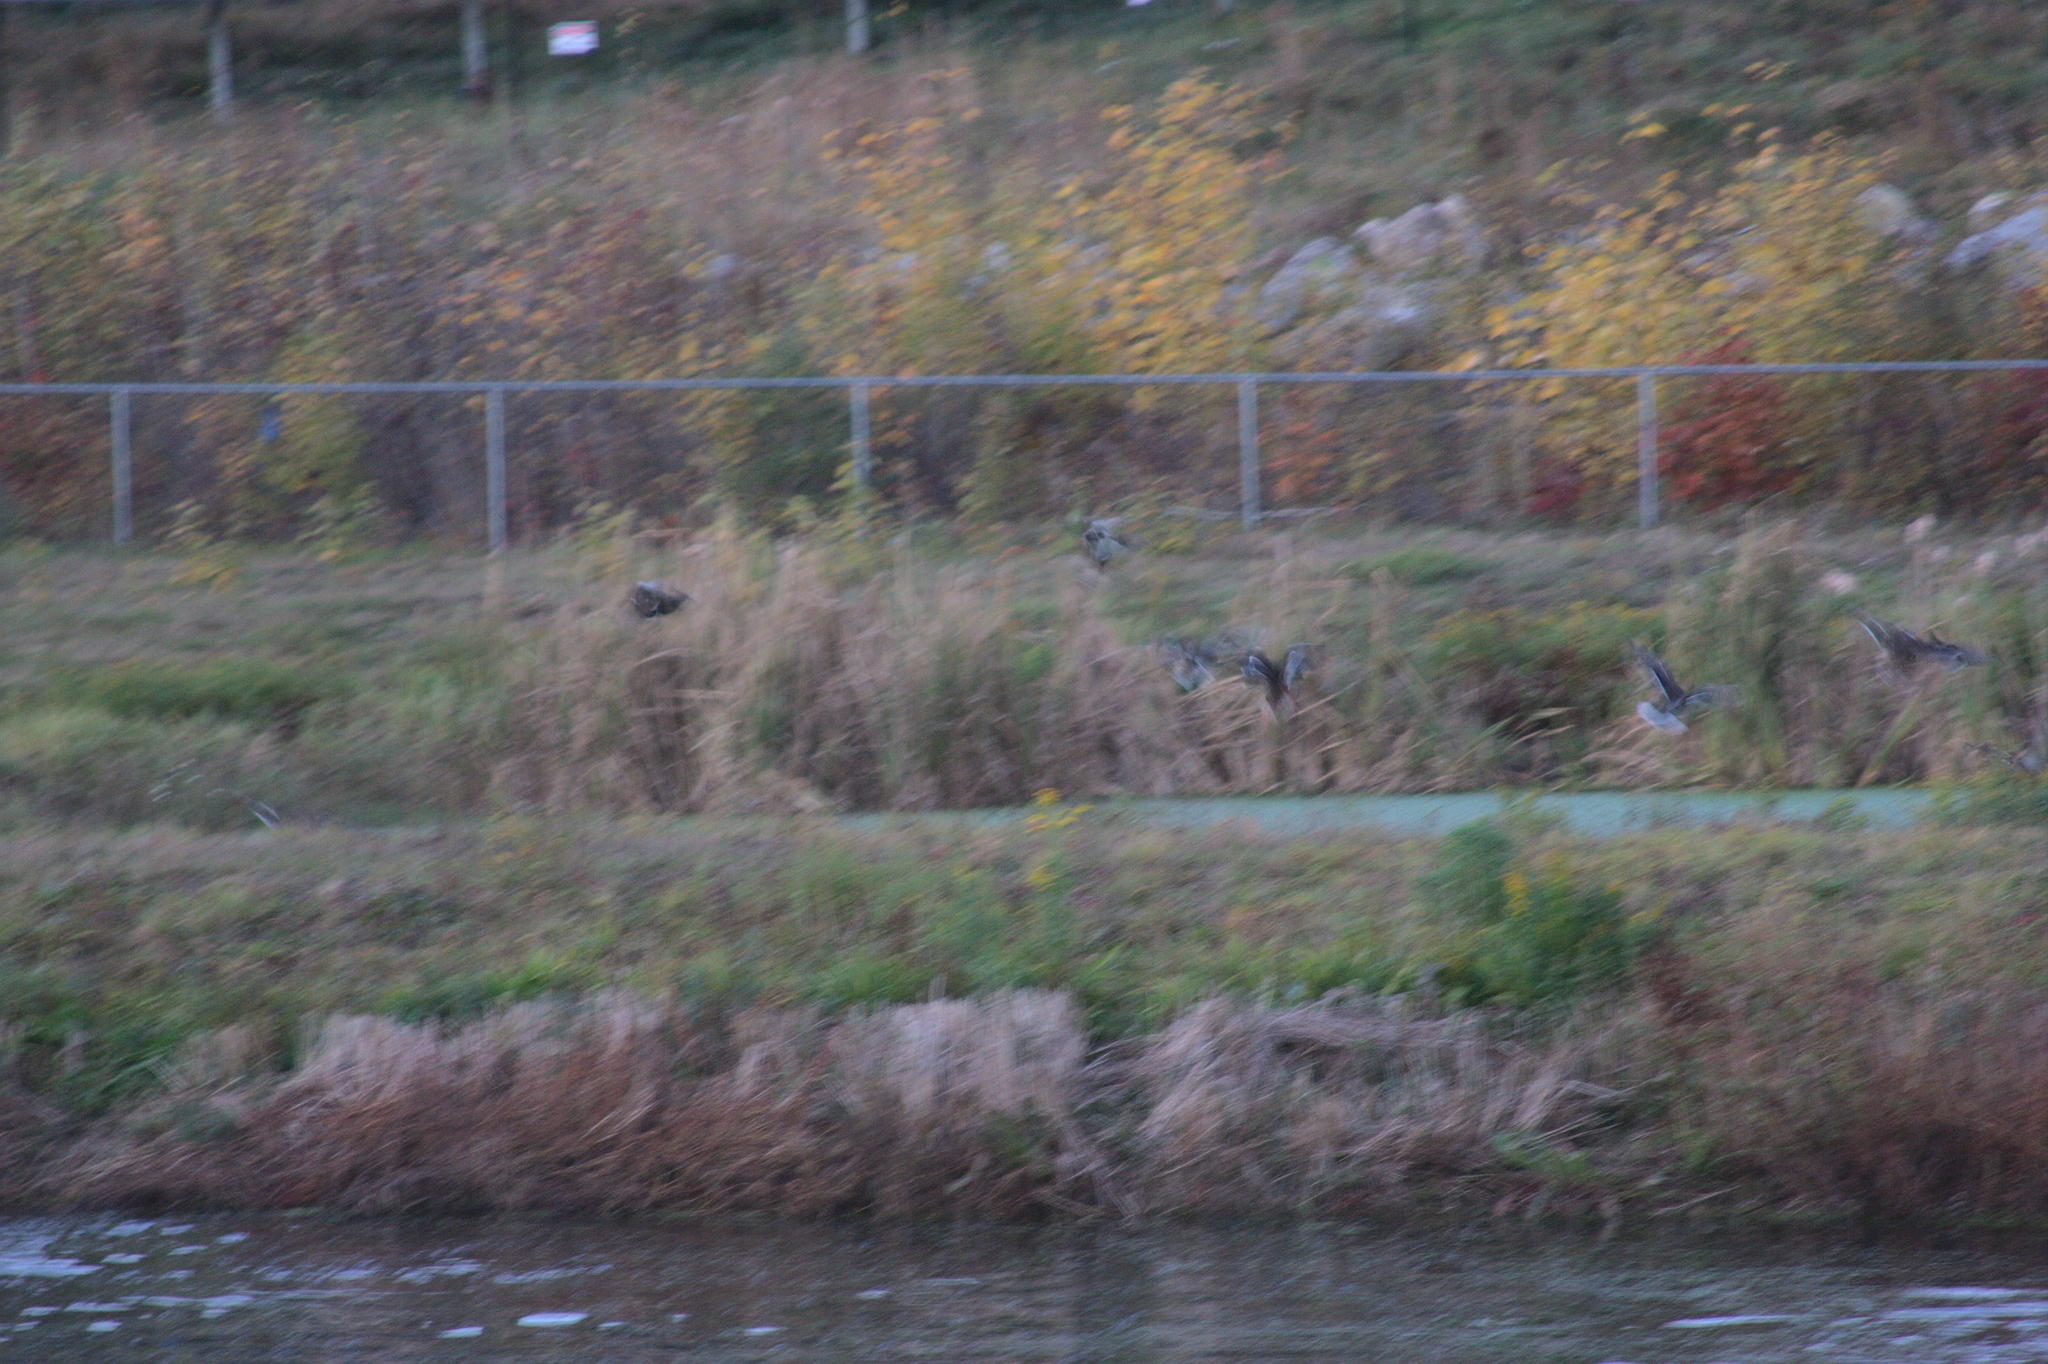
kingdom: Animalia
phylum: Chordata
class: Aves
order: Anseriformes
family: Anatidae
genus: Branta
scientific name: Branta canadensis
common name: Canada goose
